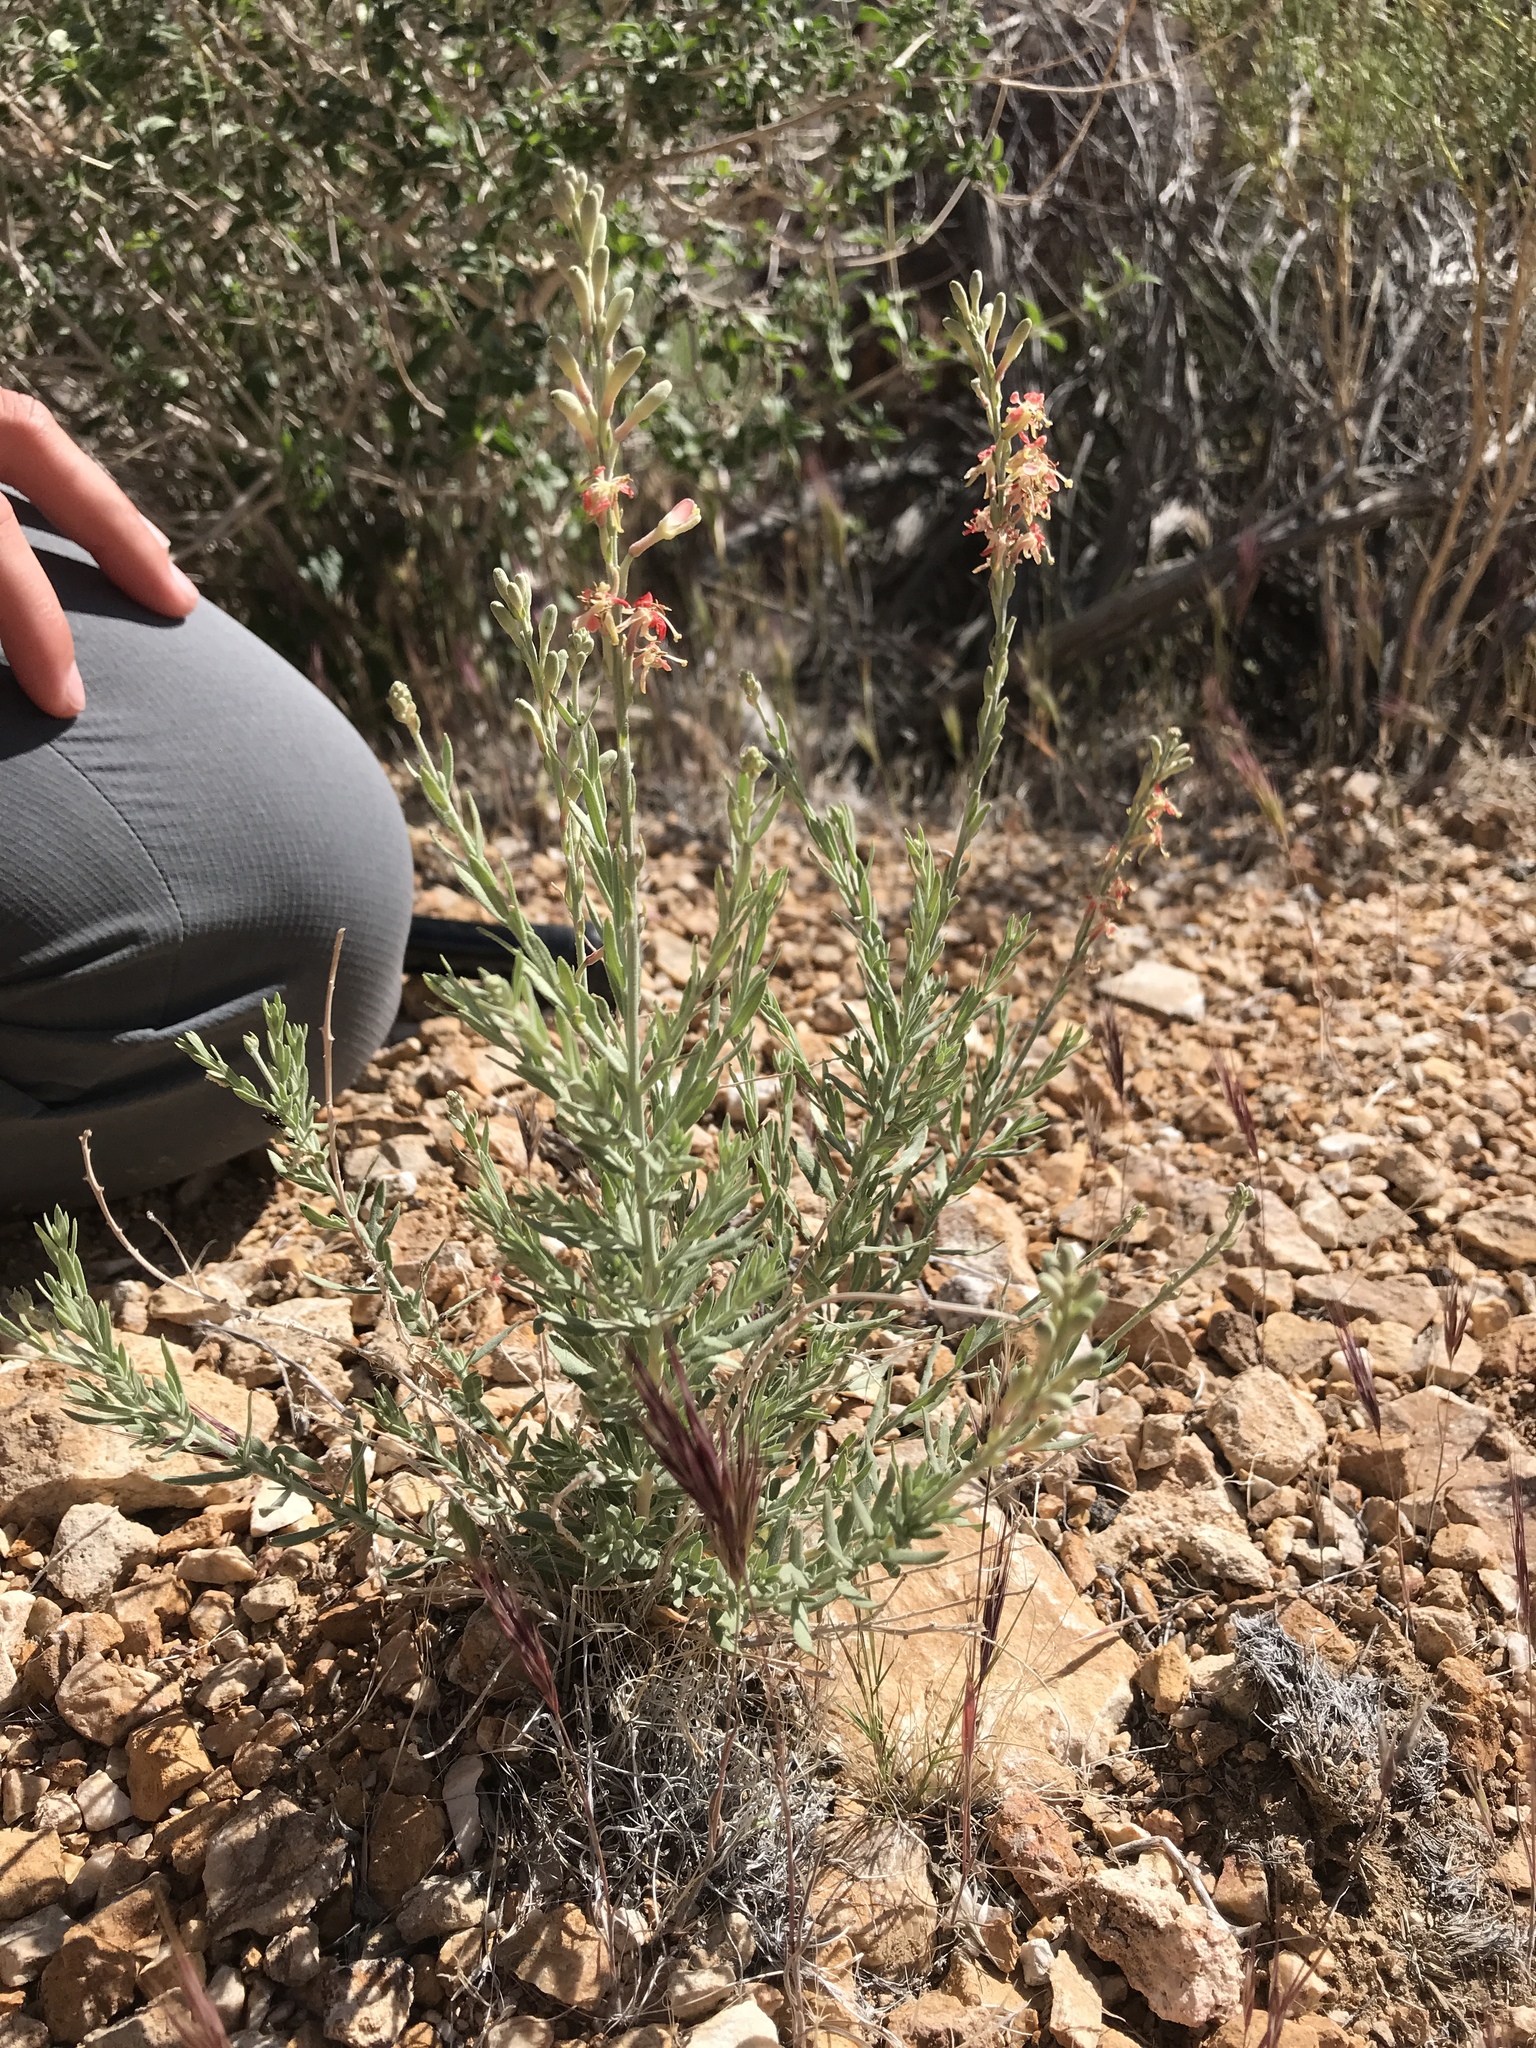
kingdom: Plantae
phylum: Tracheophyta
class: Magnoliopsida
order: Myrtales
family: Onagraceae
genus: Oenothera
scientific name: Oenothera suffrutescens
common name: Scarlet beeblossom
